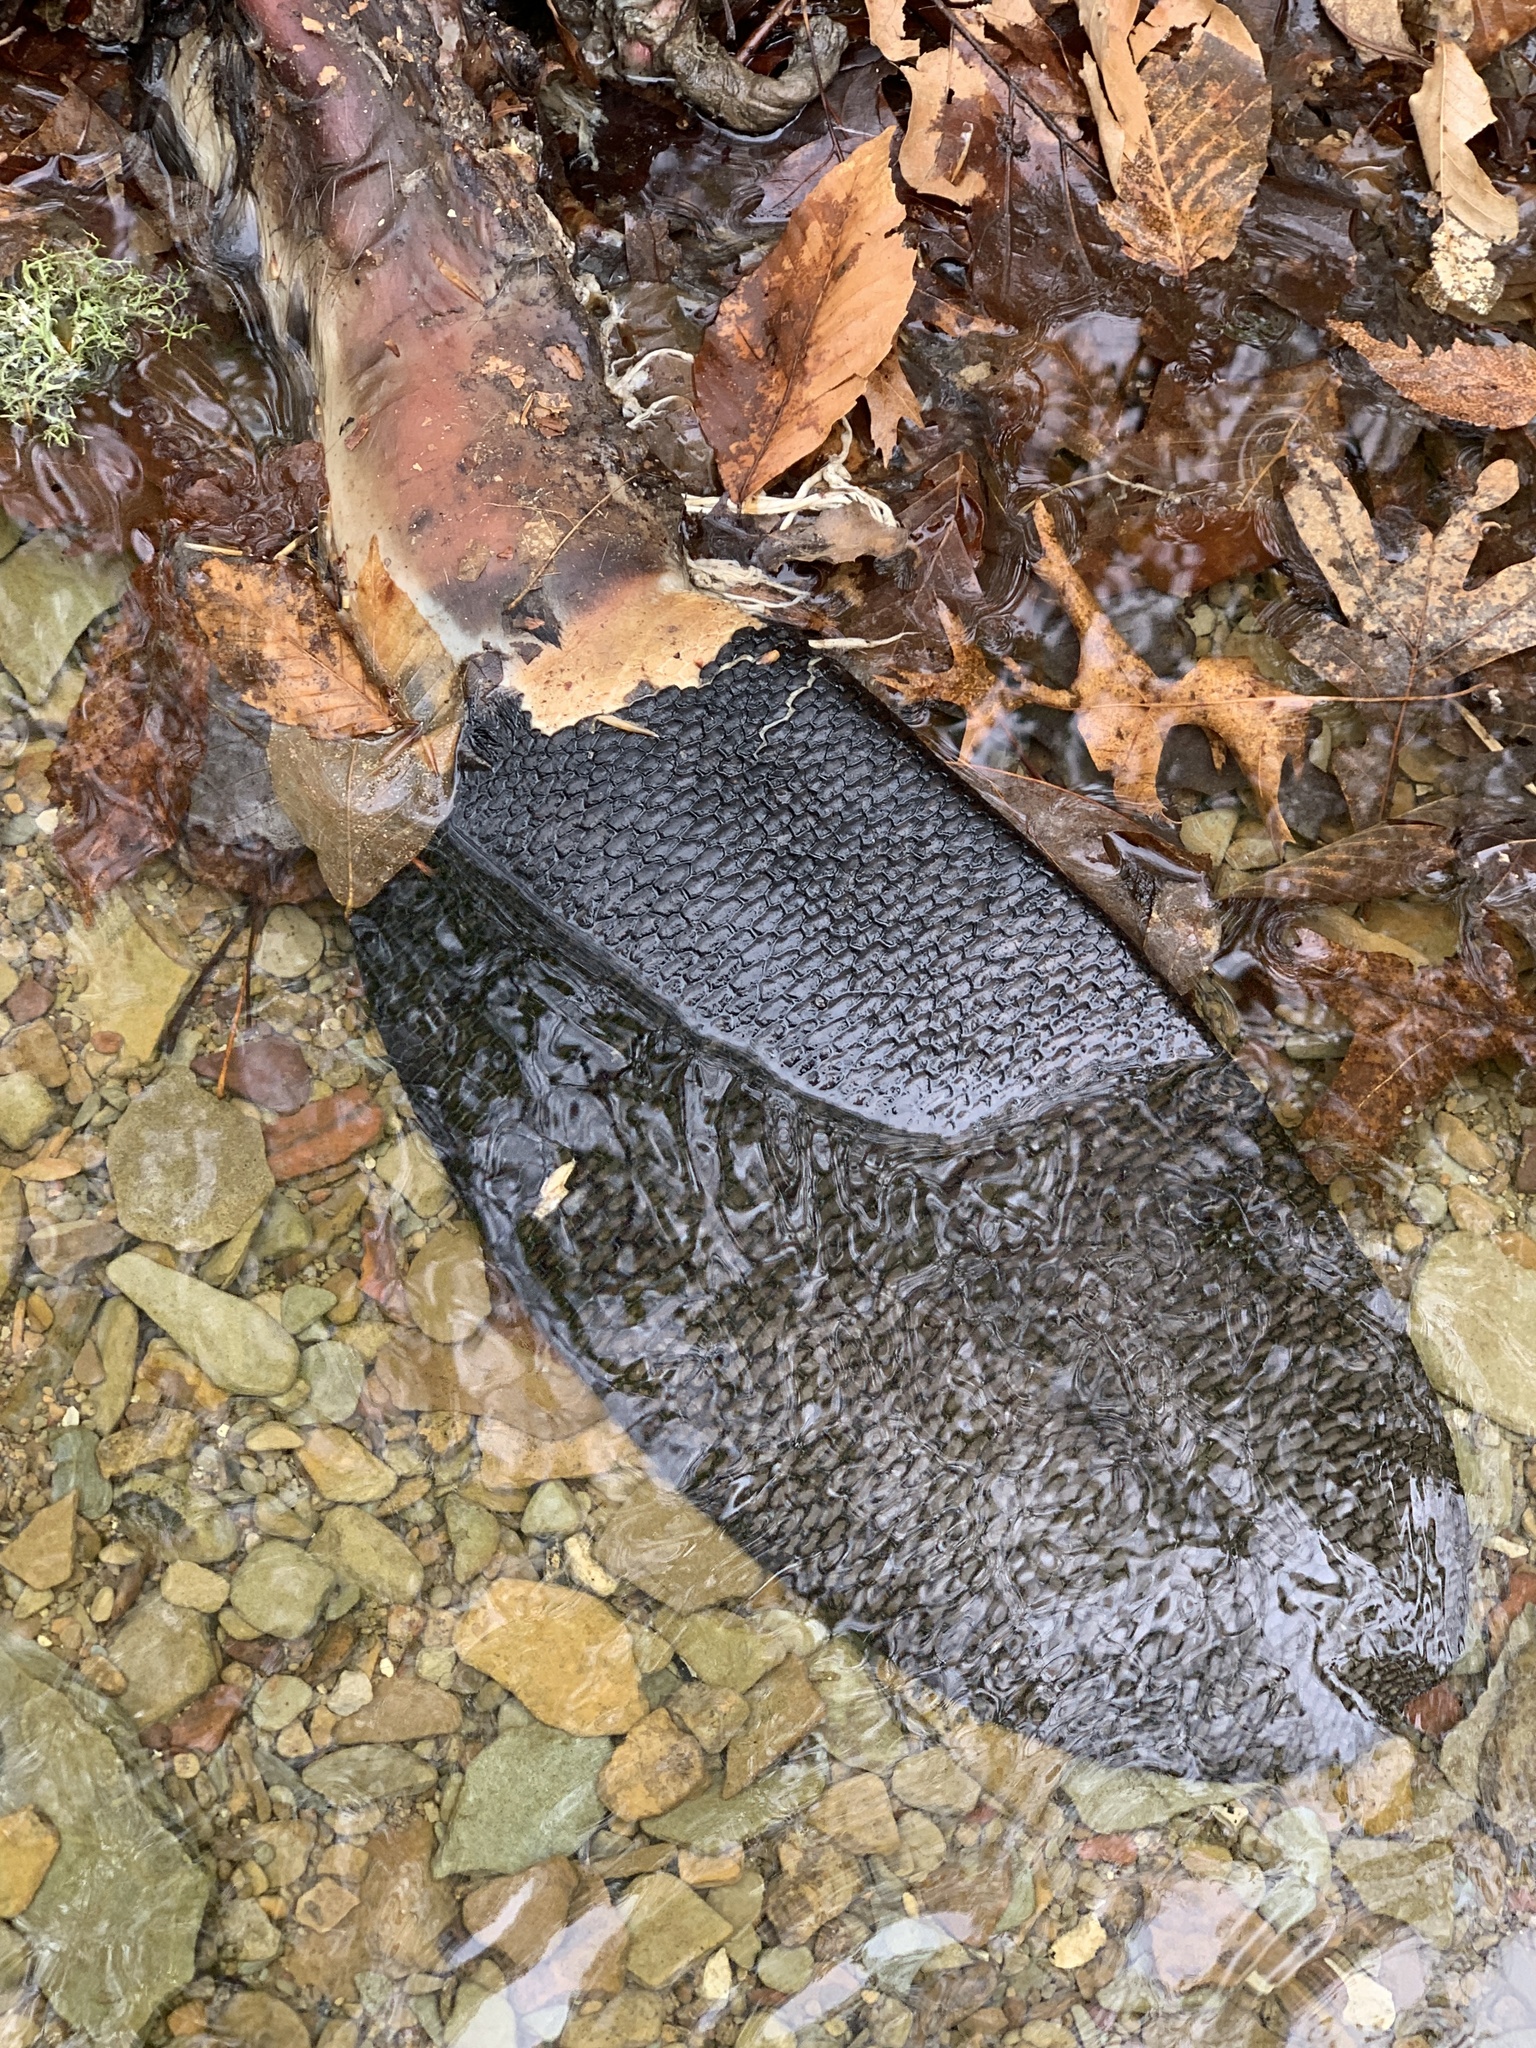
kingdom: Animalia
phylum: Chordata
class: Mammalia
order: Rodentia
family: Castoridae
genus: Castor
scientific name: Castor canadensis
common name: American beaver
